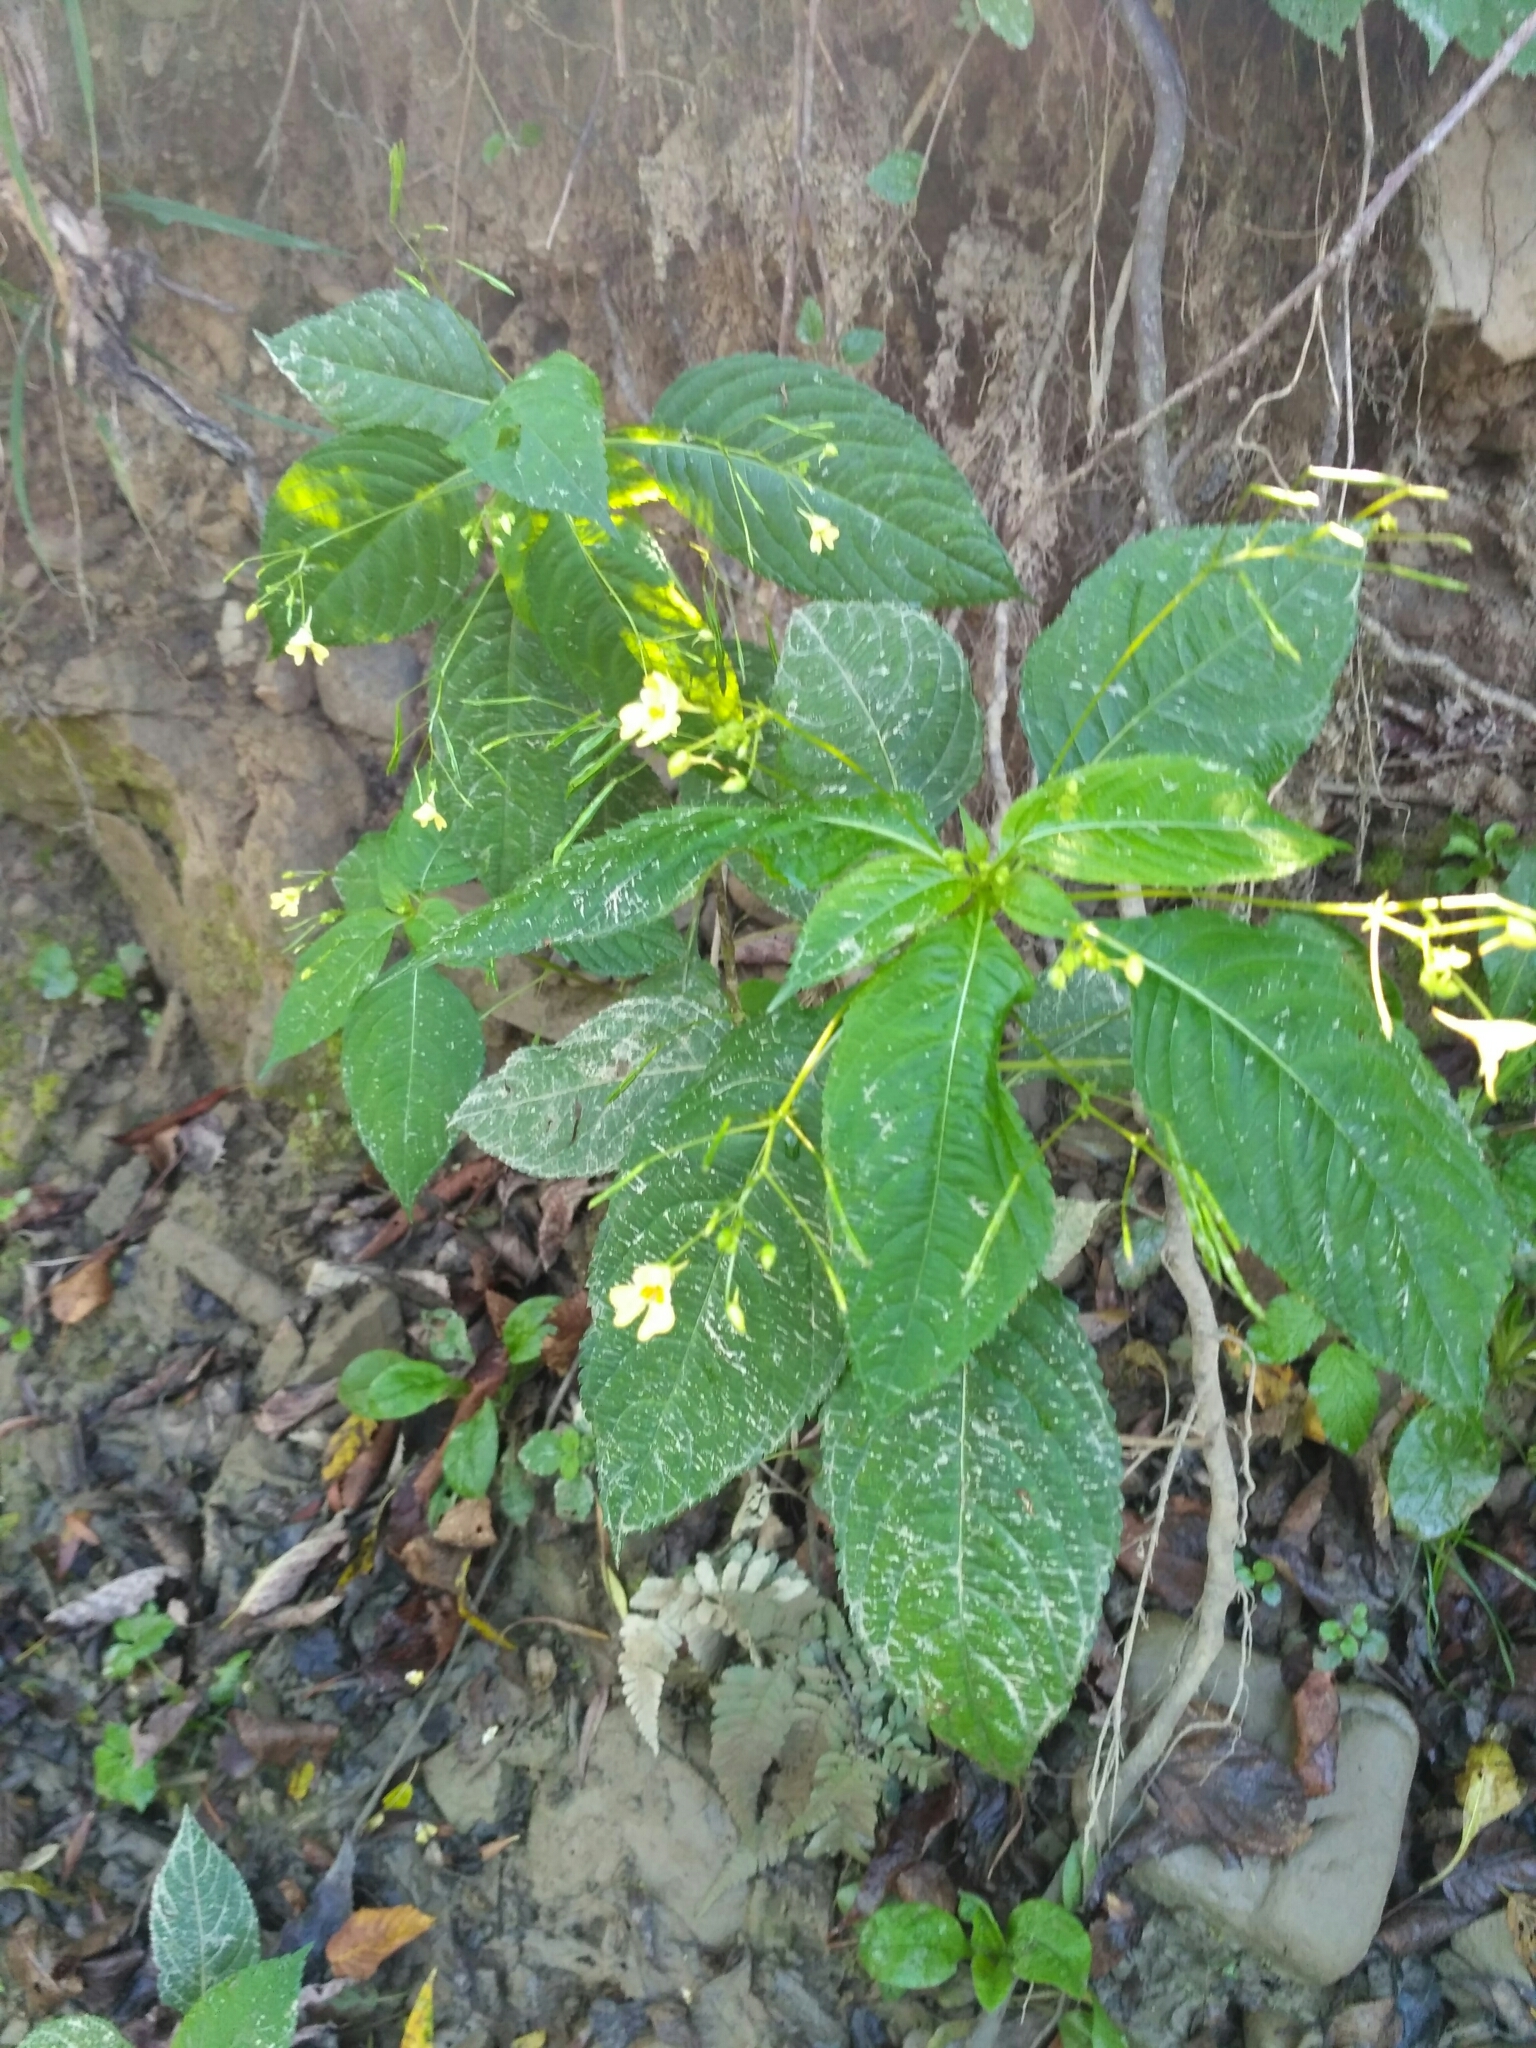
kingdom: Plantae
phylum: Tracheophyta
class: Magnoliopsida
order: Ericales
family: Balsaminaceae
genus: Impatiens
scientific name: Impatiens parviflora
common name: Small balsam
